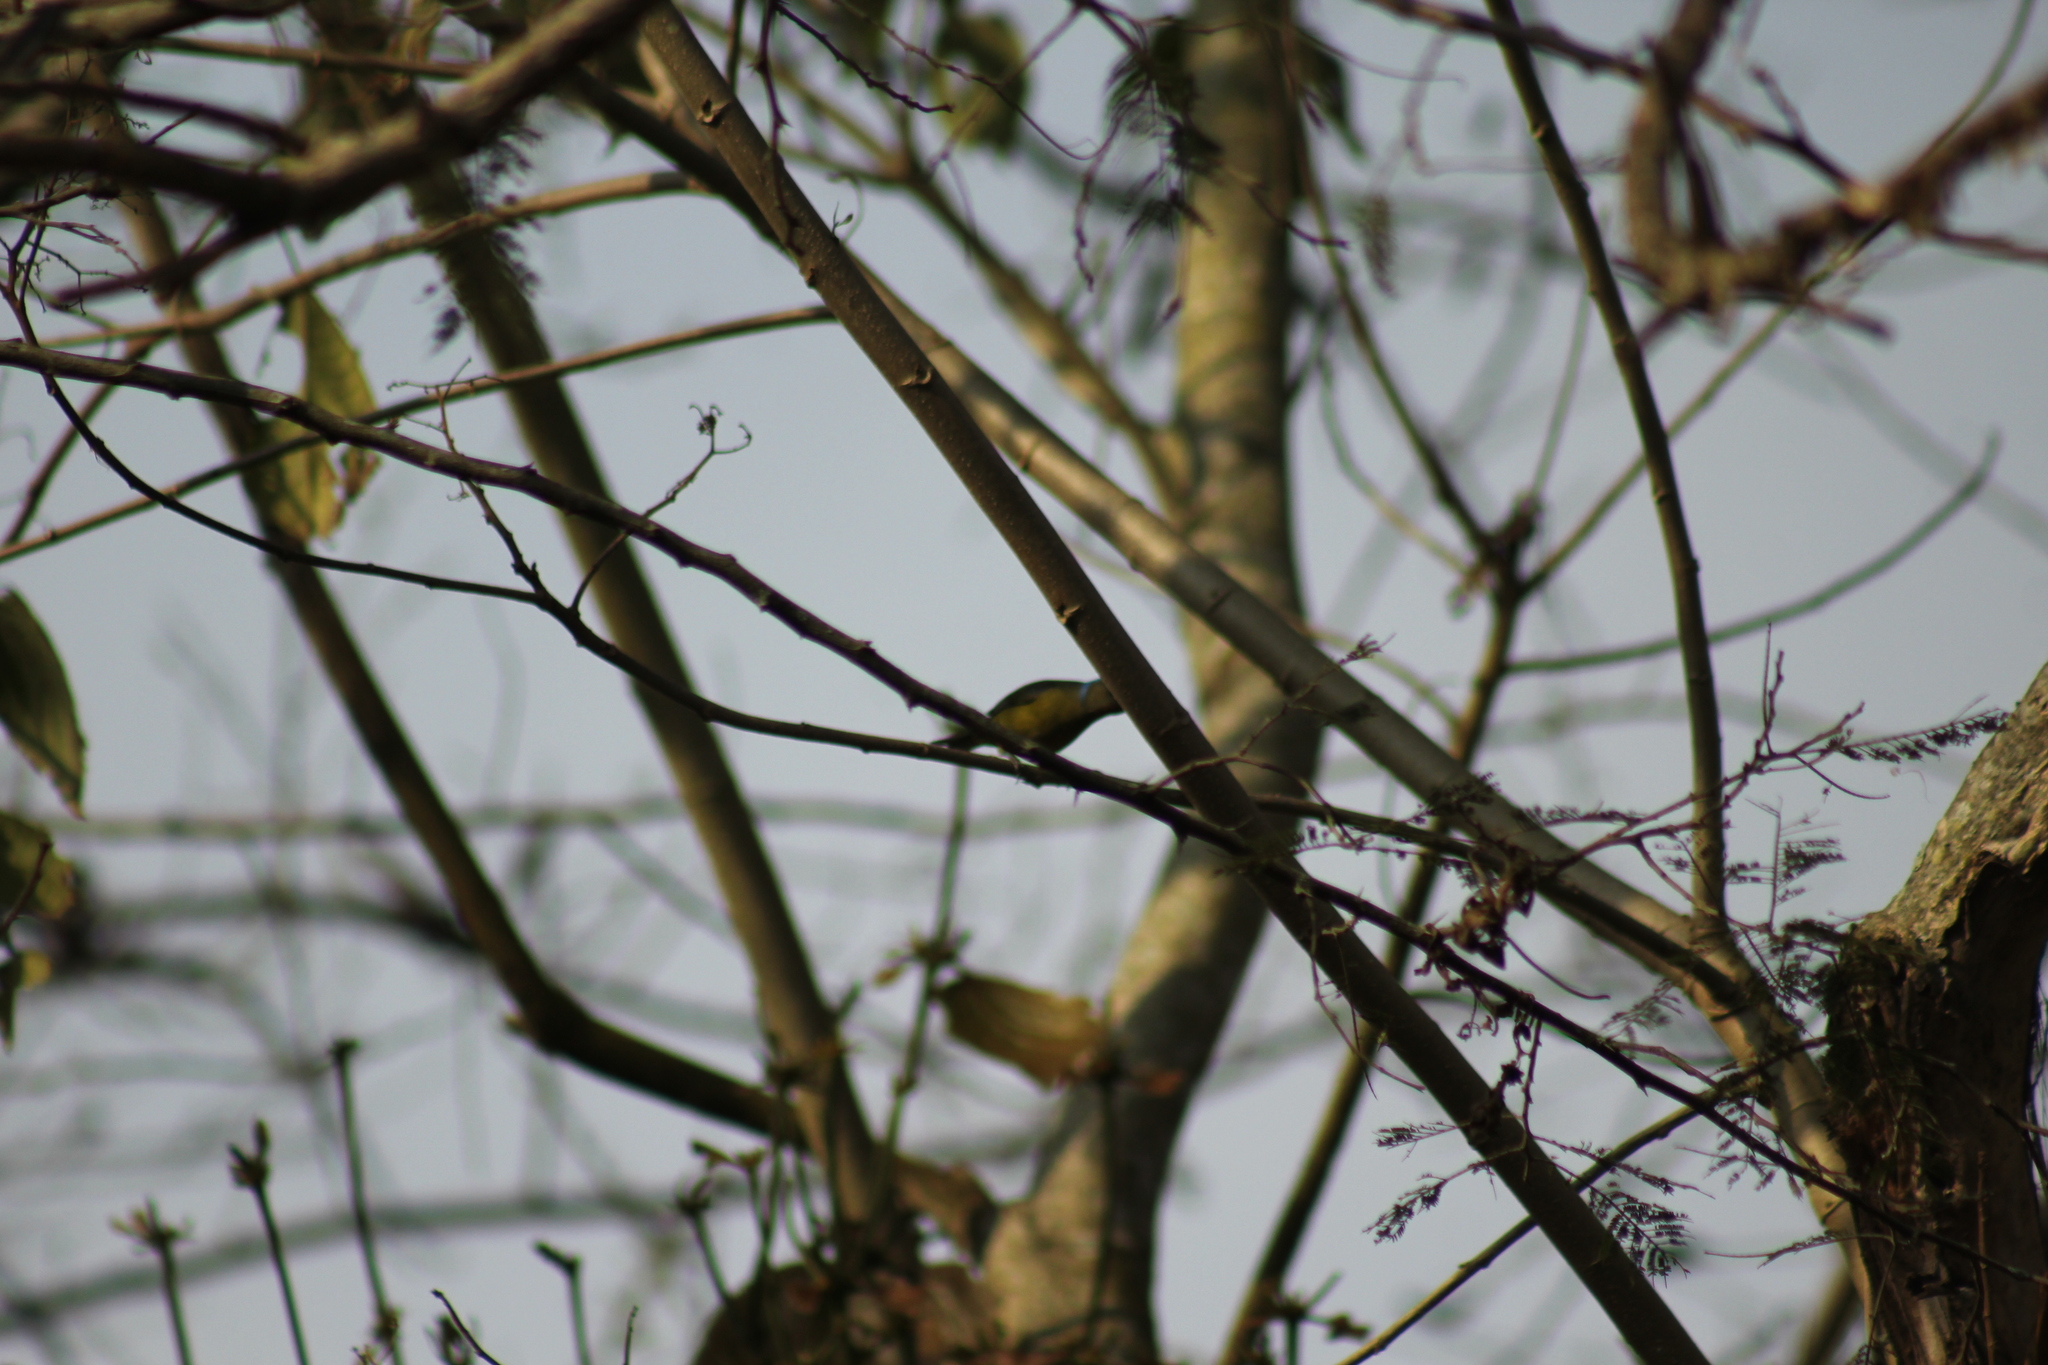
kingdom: Animalia
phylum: Chordata
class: Aves
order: Passeriformes
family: Fringillidae
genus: Euphonia
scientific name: Euphonia elegantissima
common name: Elegant euphonia
